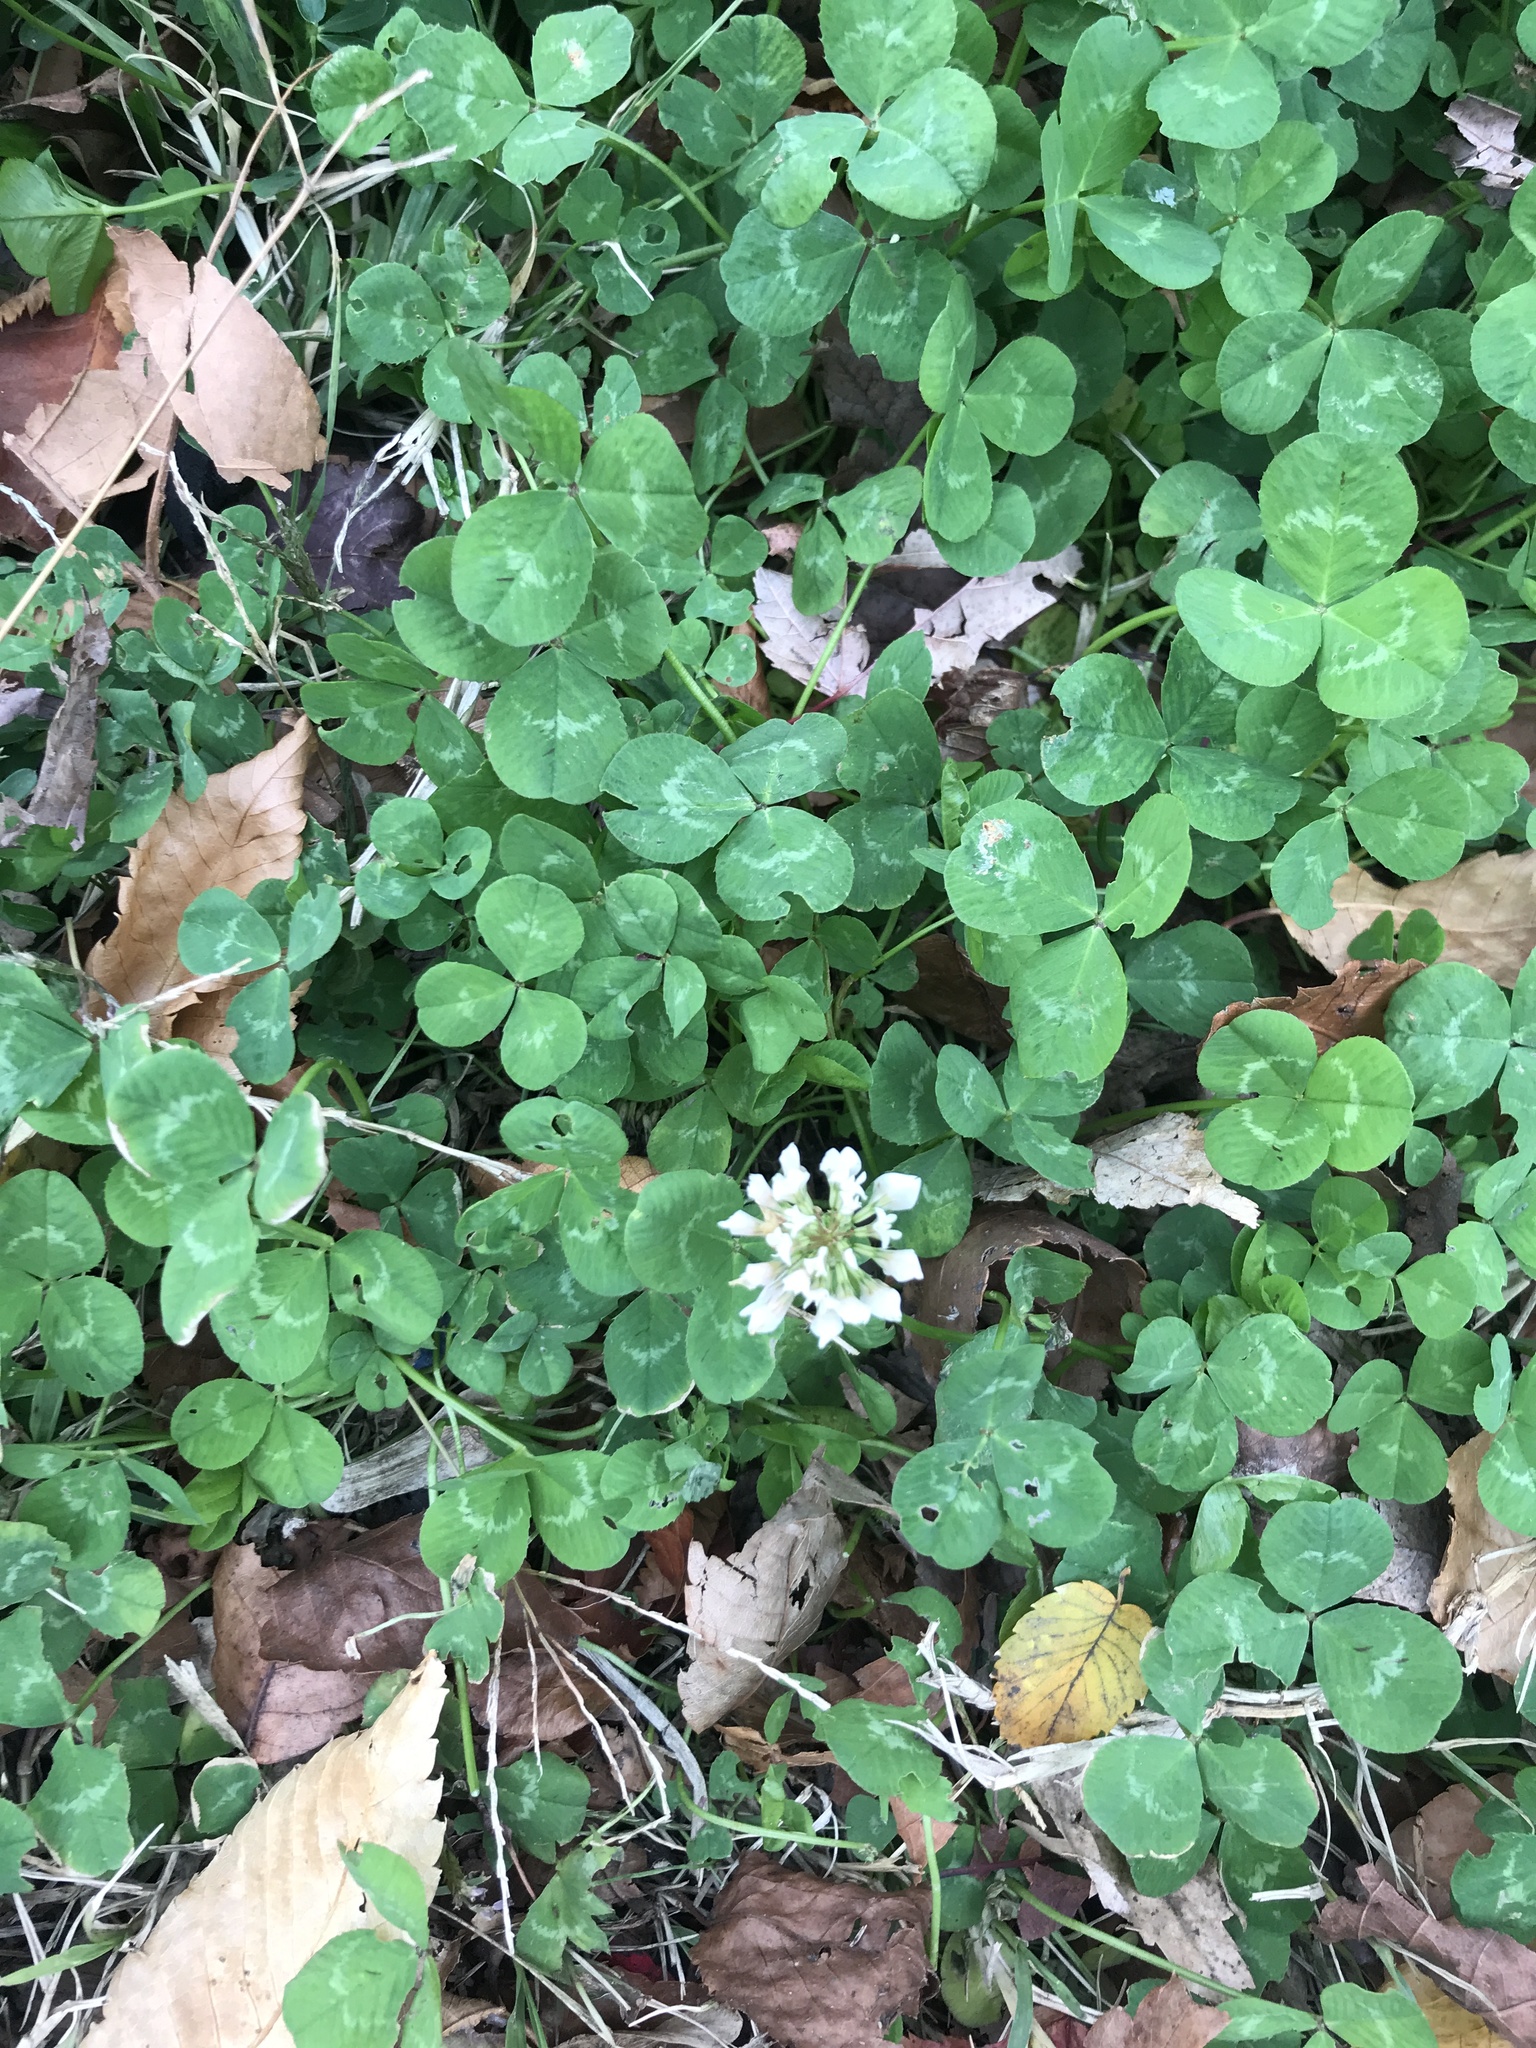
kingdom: Plantae
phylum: Tracheophyta
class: Magnoliopsida
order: Fabales
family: Fabaceae
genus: Trifolium
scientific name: Trifolium repens
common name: White clover
